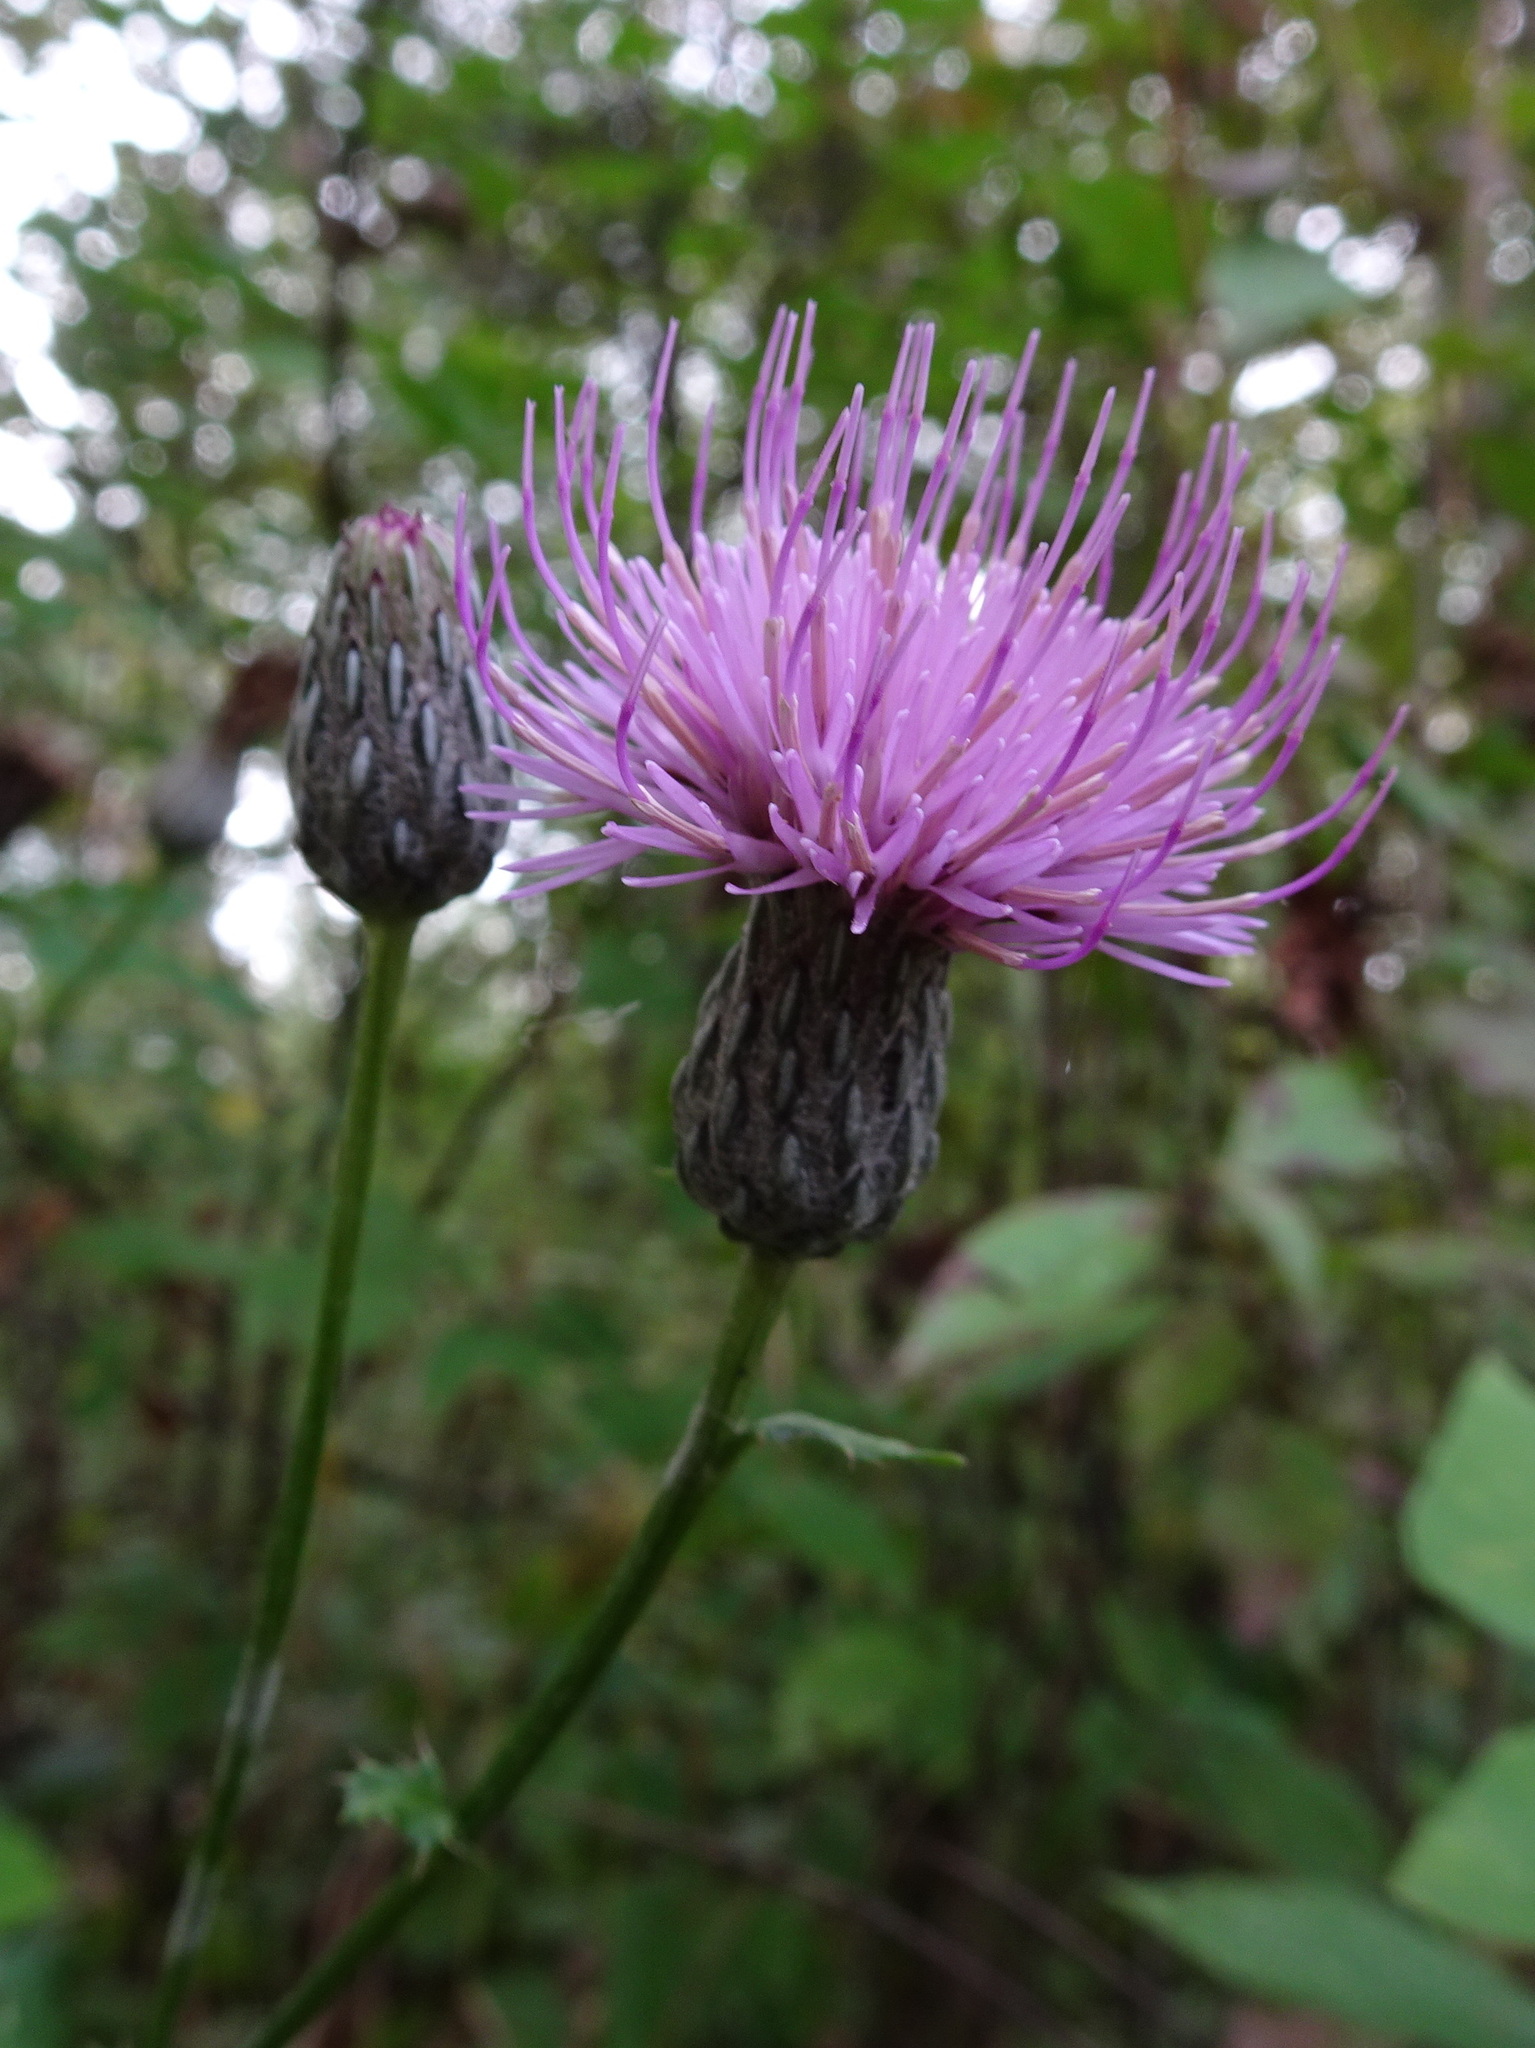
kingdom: Plantae
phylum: Tracheophyta
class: Magnoliopsida
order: Asterales
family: Asteraceae
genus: Cirsium
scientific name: Cirsium muticum
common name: Dunce-nettle
